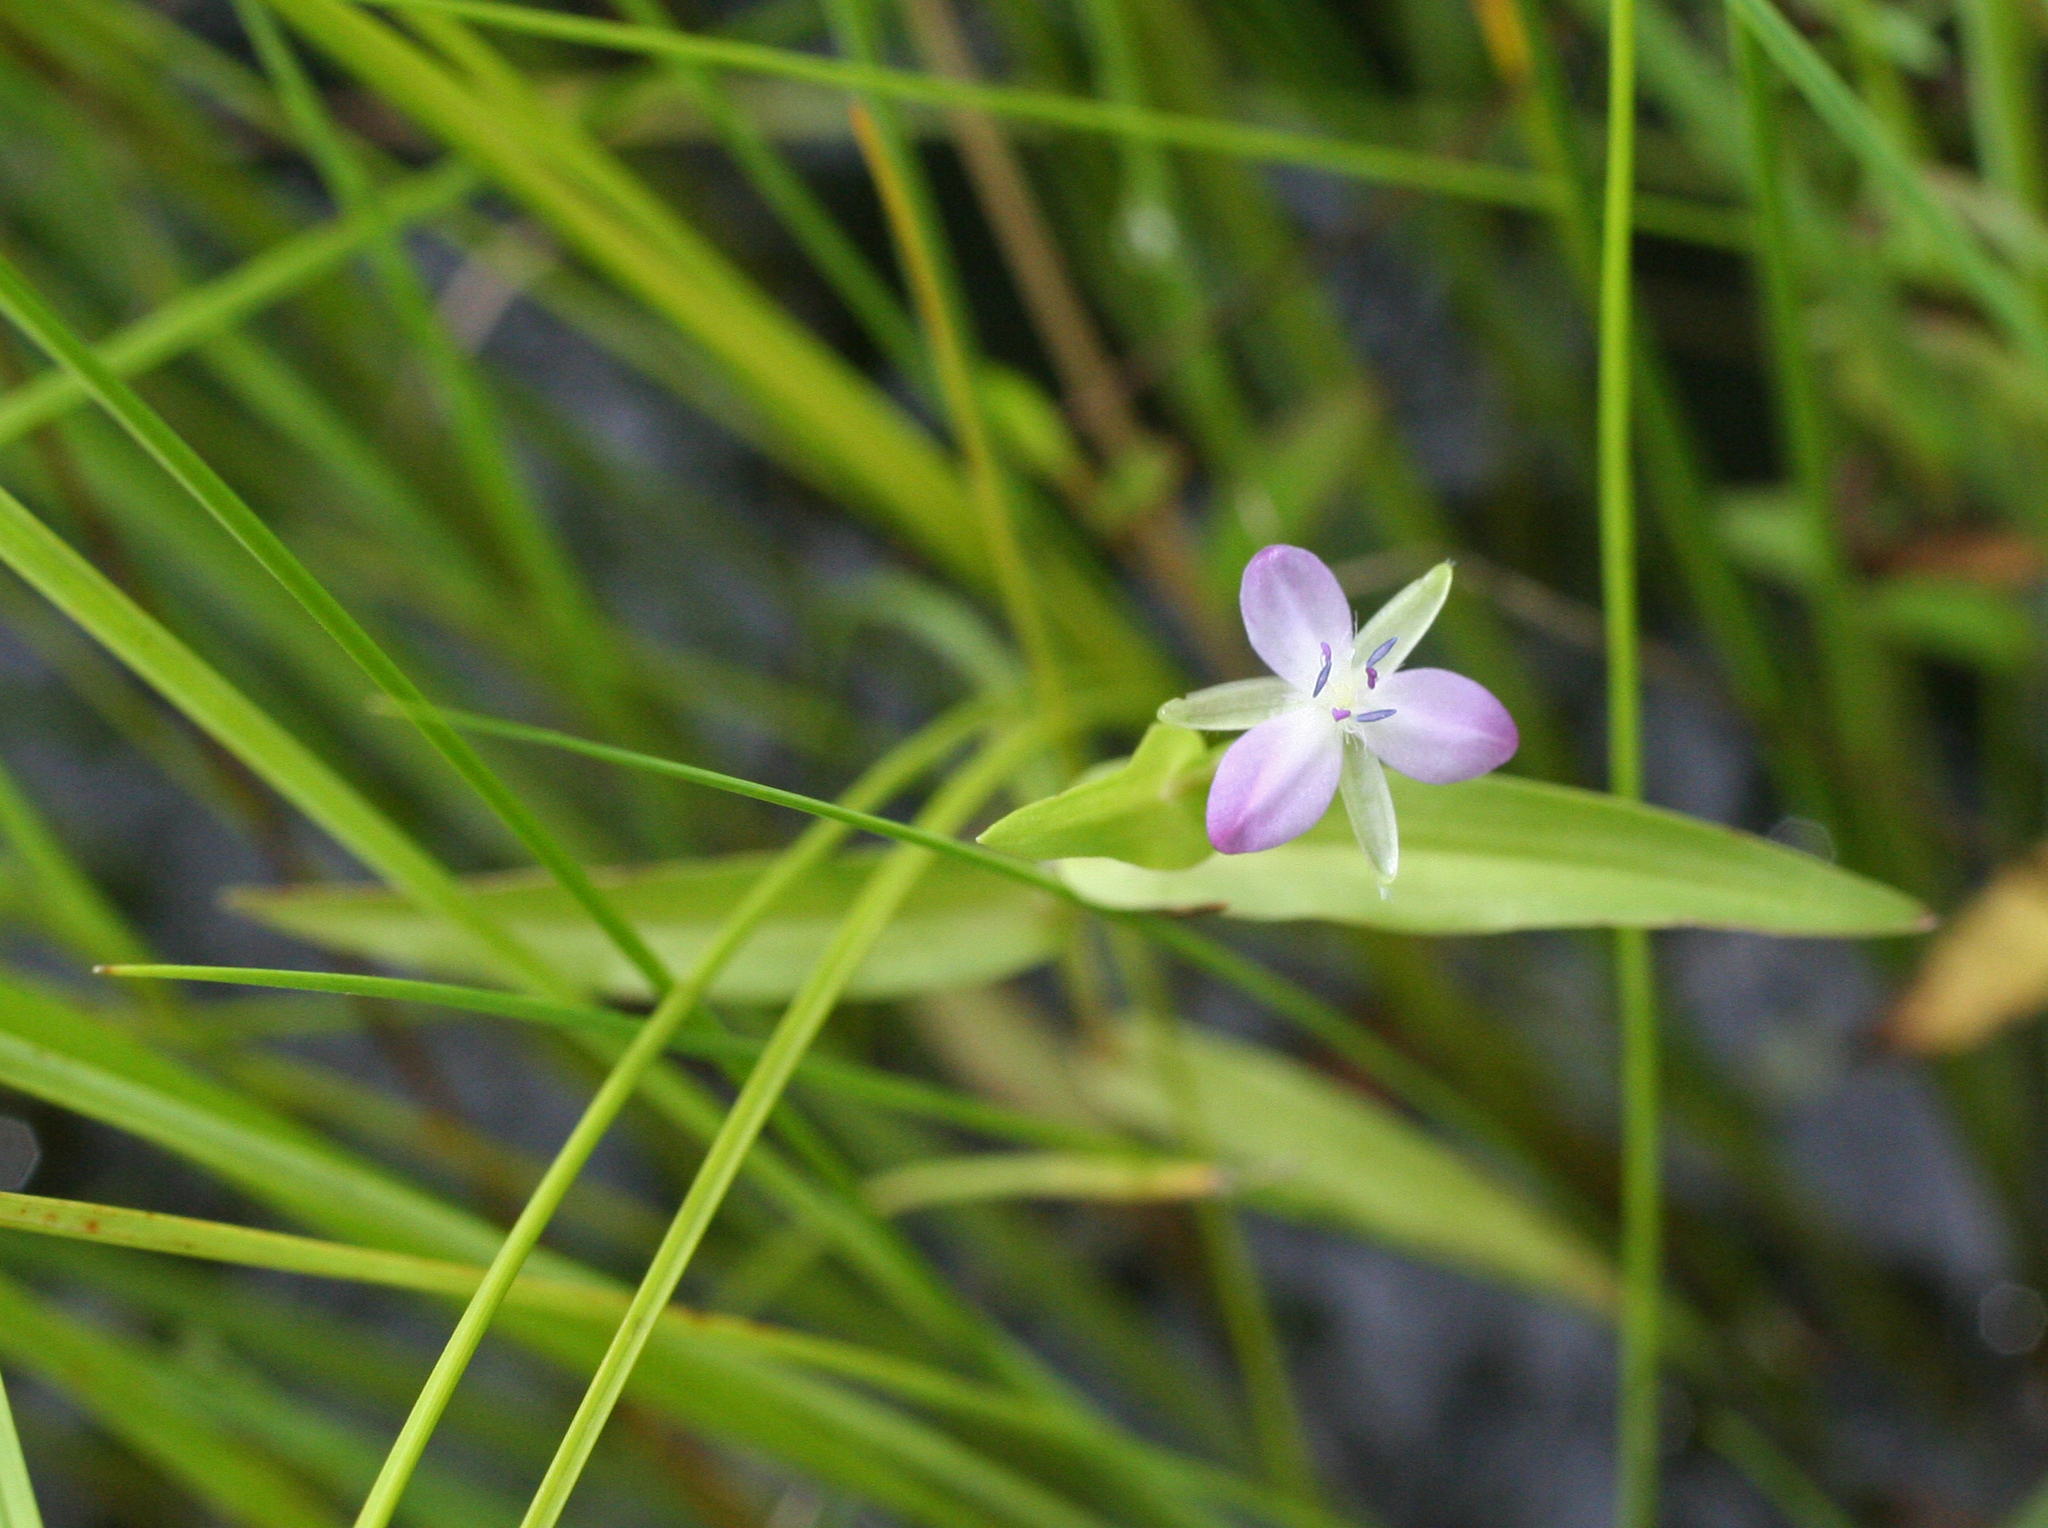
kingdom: Plantae
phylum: Tracheophyta
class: Liliopsida
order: Commelinales
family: Commelinaceae
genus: Murdannia
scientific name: Murdannia keisak
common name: Wartremoving herb
